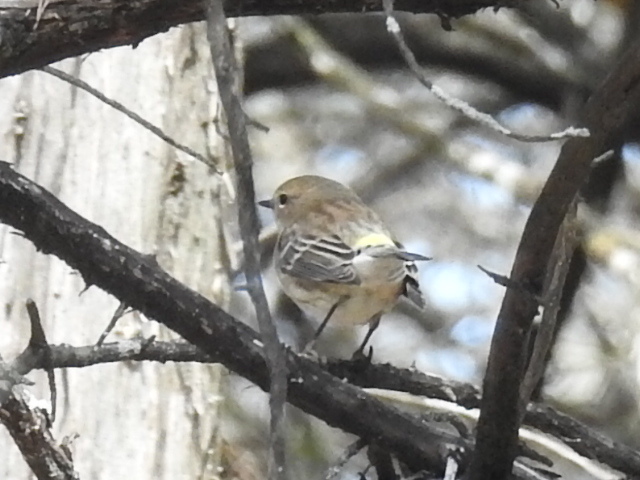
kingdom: Animalia
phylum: Chordata
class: Aves
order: Passeriformes
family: Parulidae
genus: Setophaga
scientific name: Setophaga coronata
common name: Myrtle warbler
